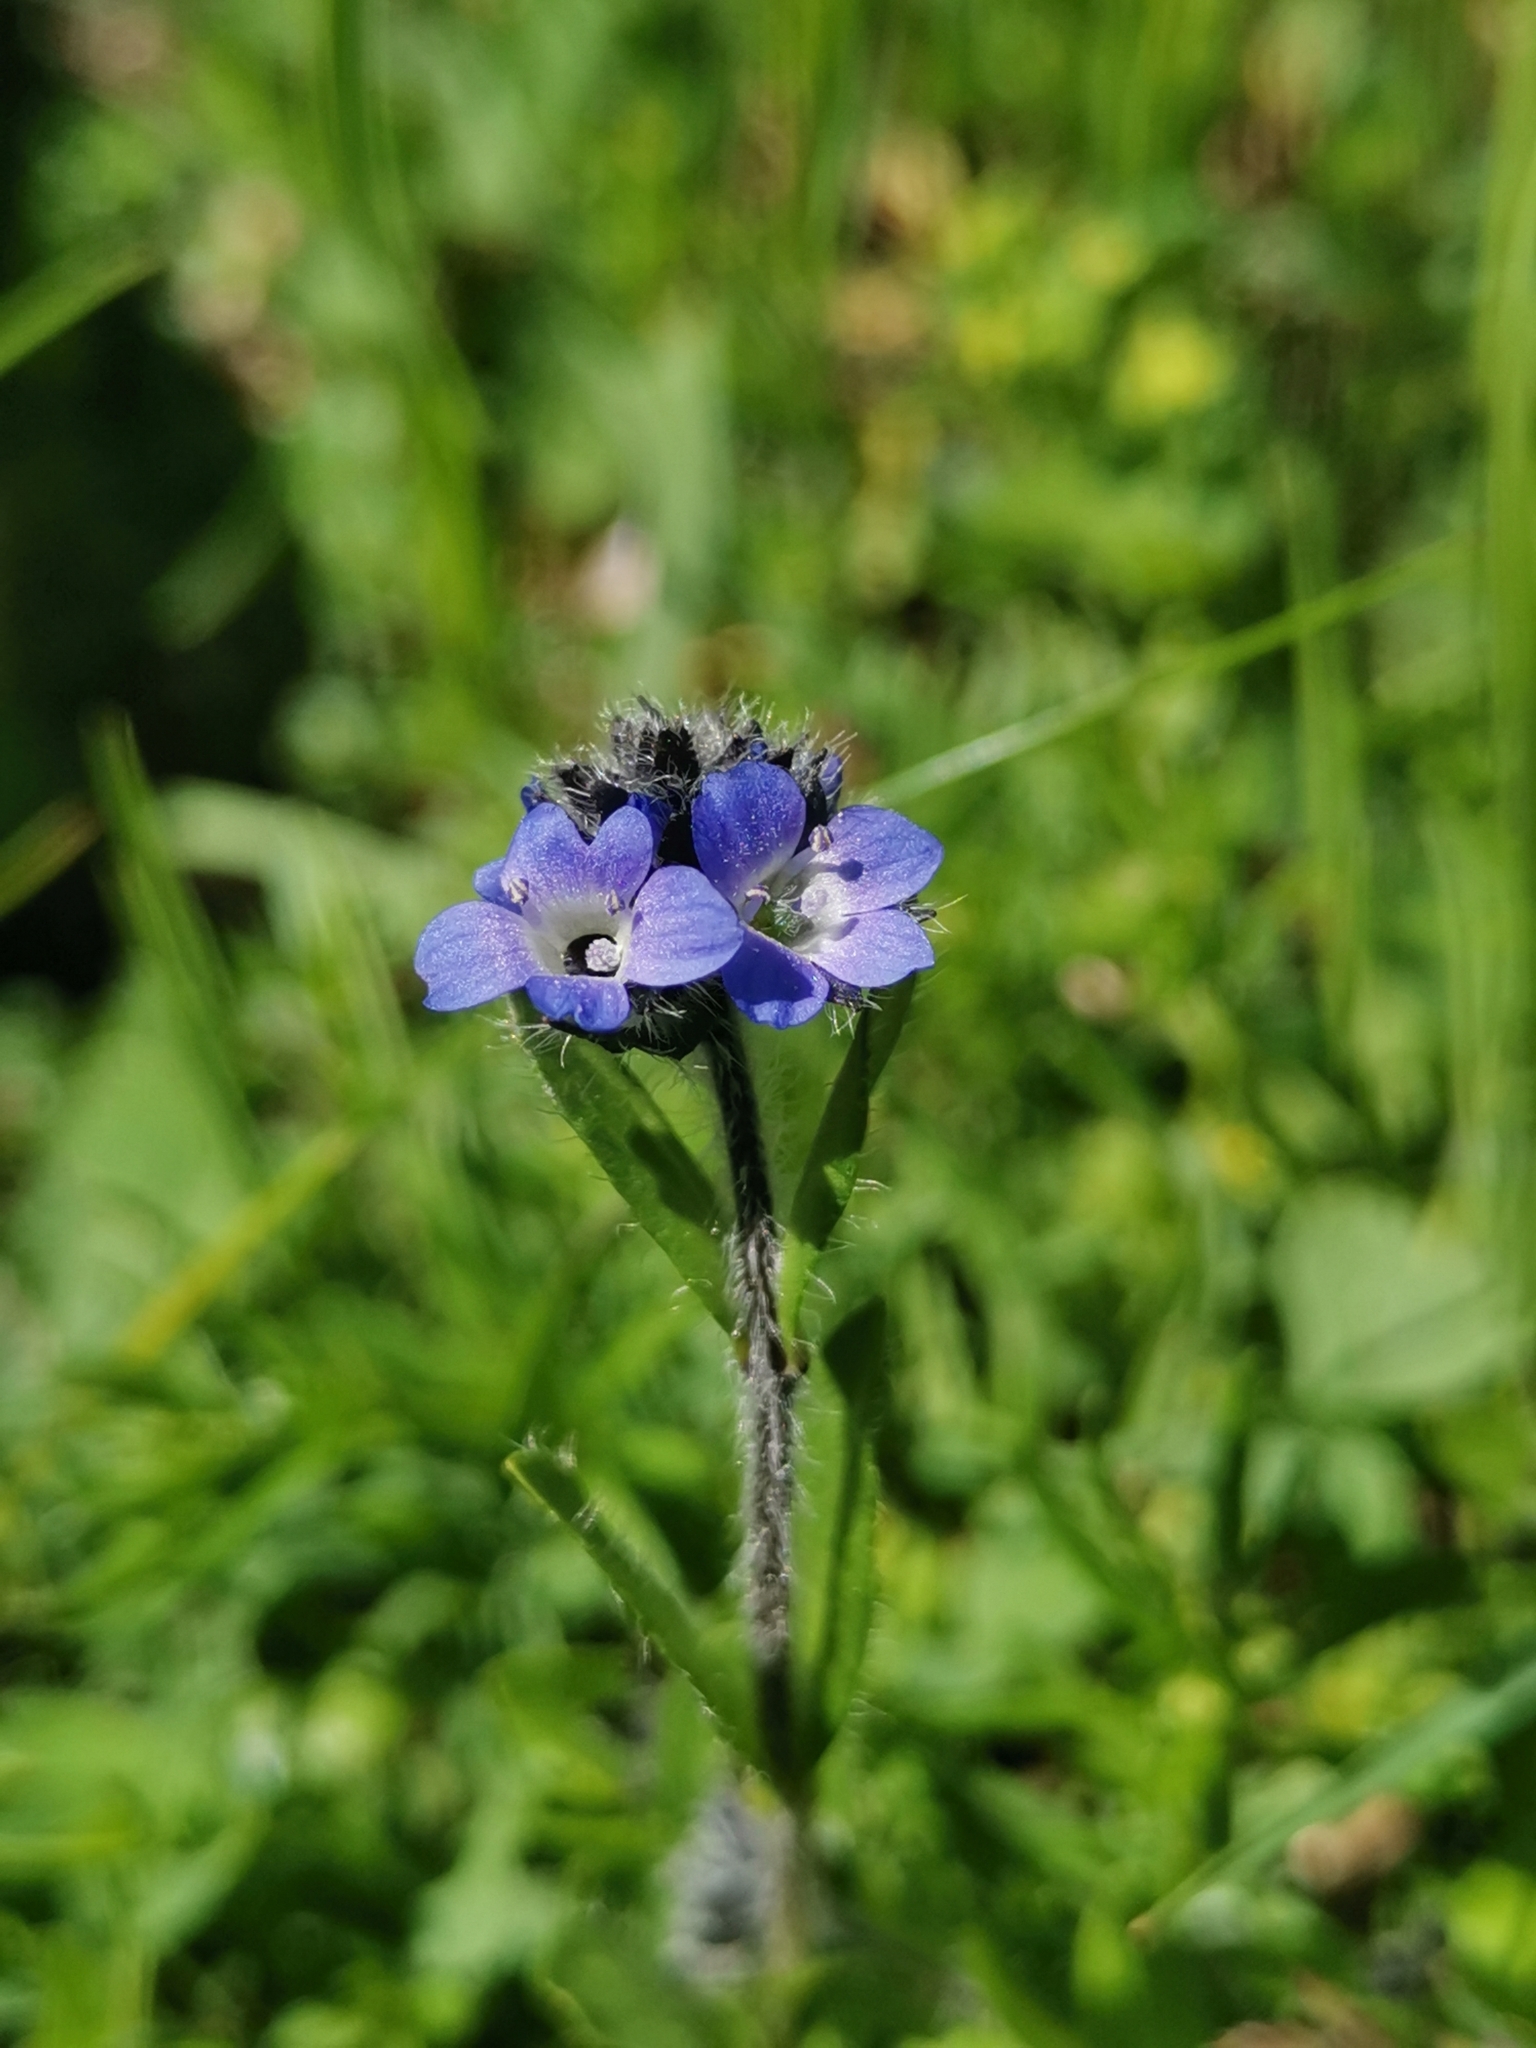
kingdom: Plantae
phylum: Tracheophyta
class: Magnoliopsida
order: Lamiales
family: Plantaginaceae
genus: Veronica
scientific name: Veronica alpina
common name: Alpine speedwell
